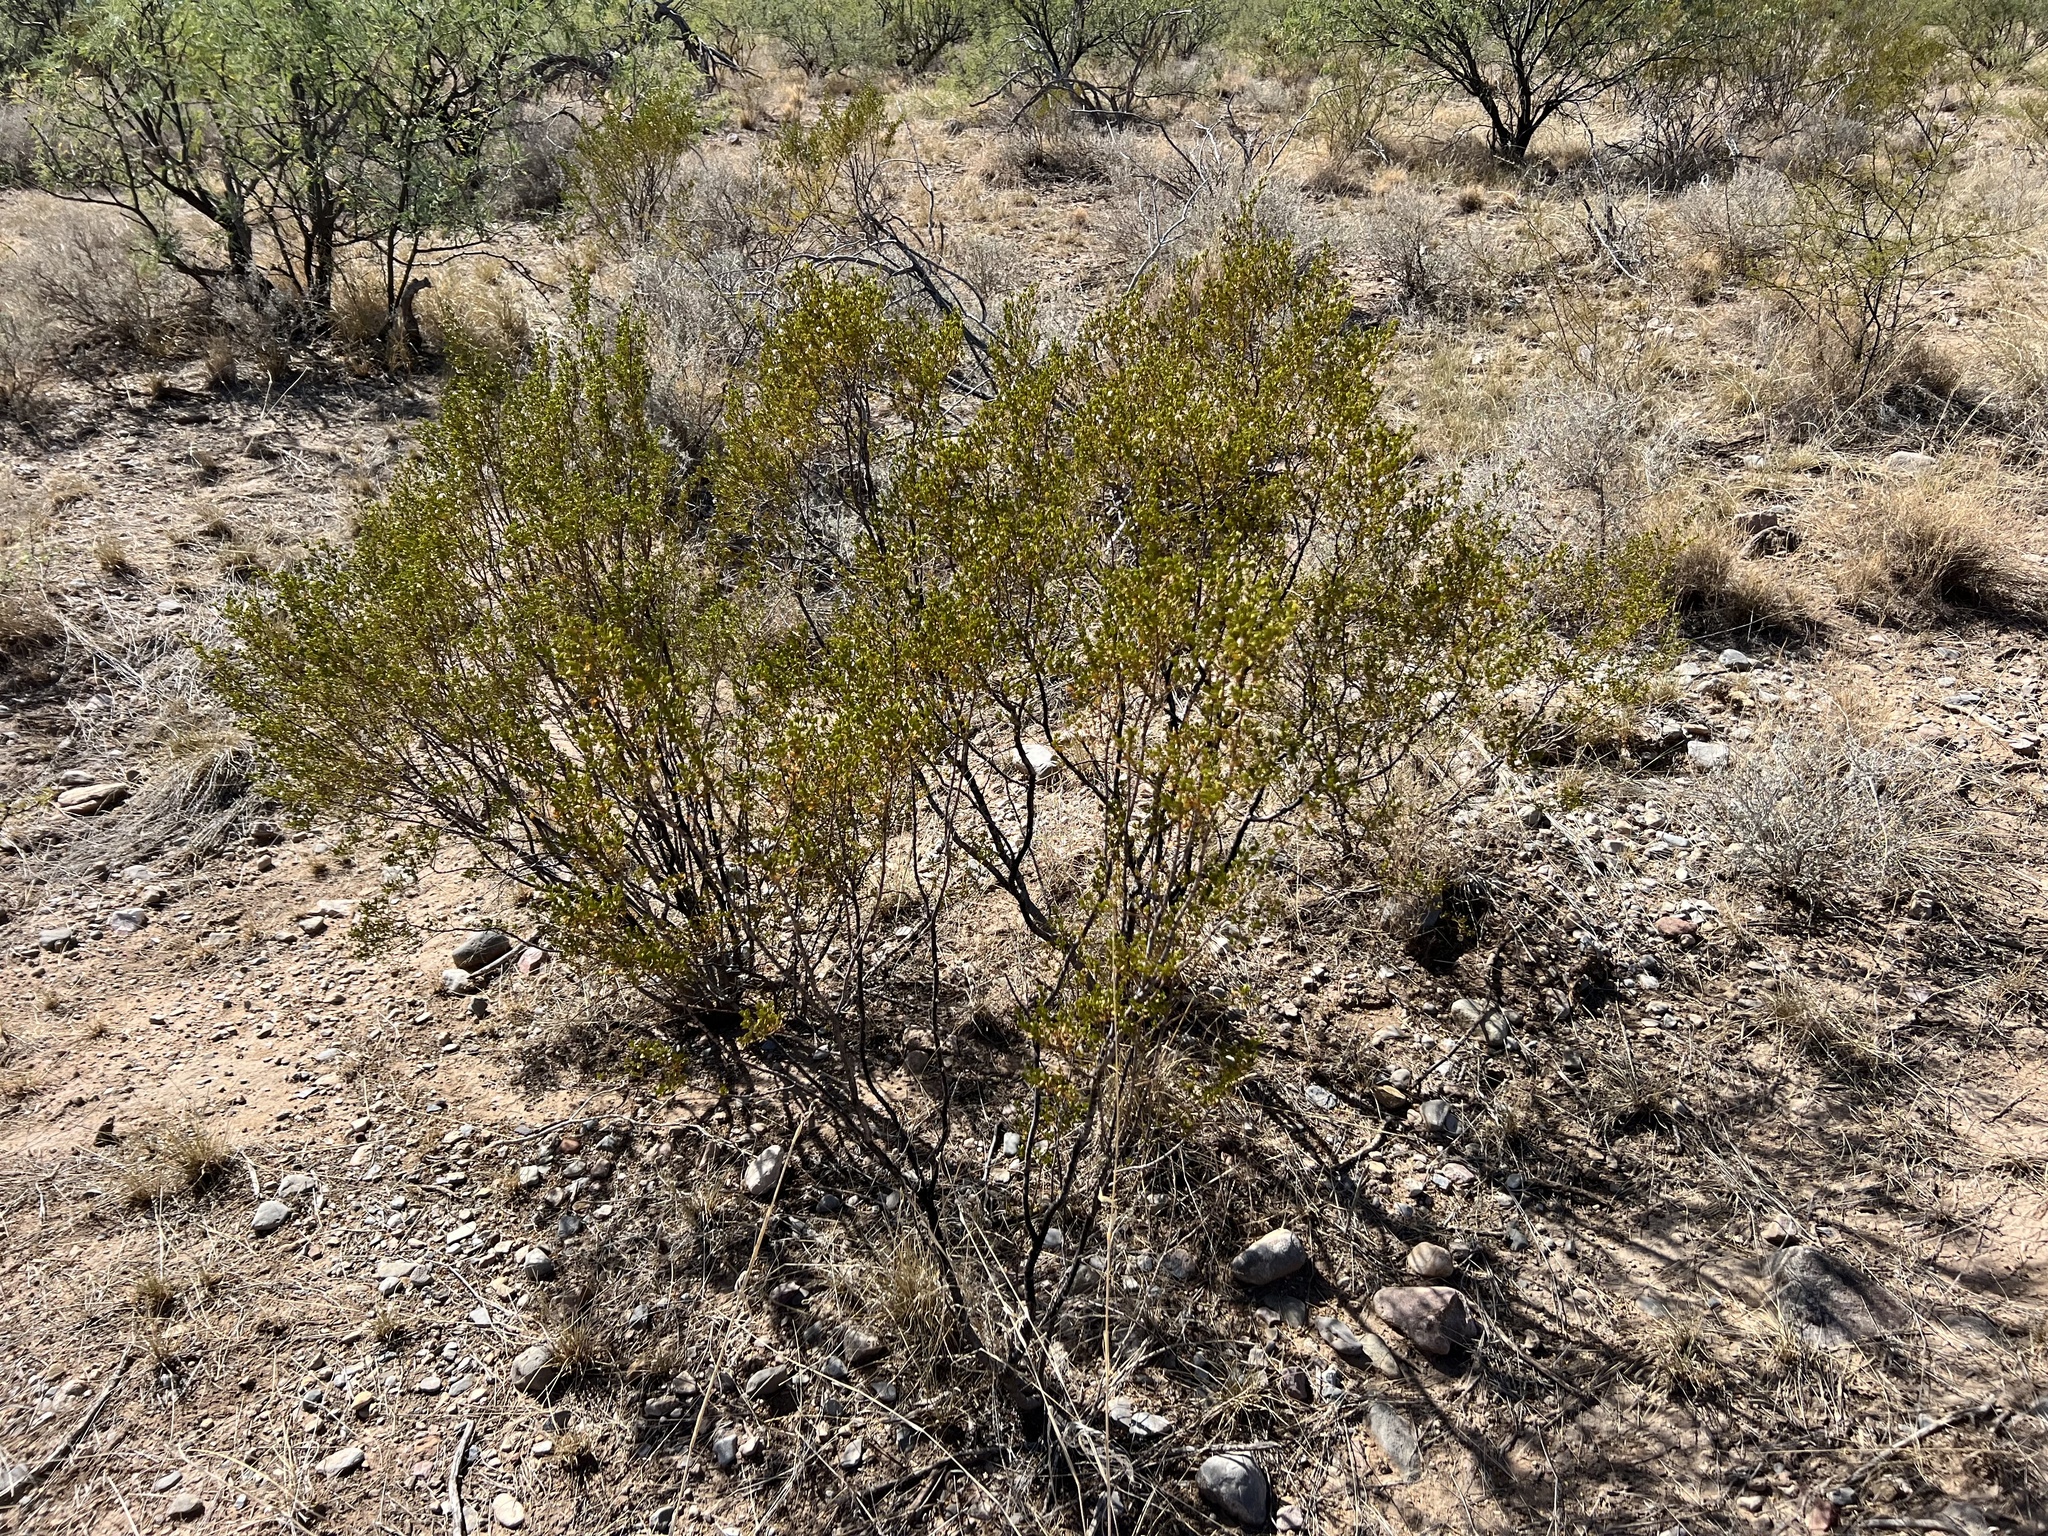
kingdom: Plantae
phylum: Tracheophyta
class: Magnoliopsida
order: Zygophyllales
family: Zygophyllaceae
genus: Larrea
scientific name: Larrea tridentata
